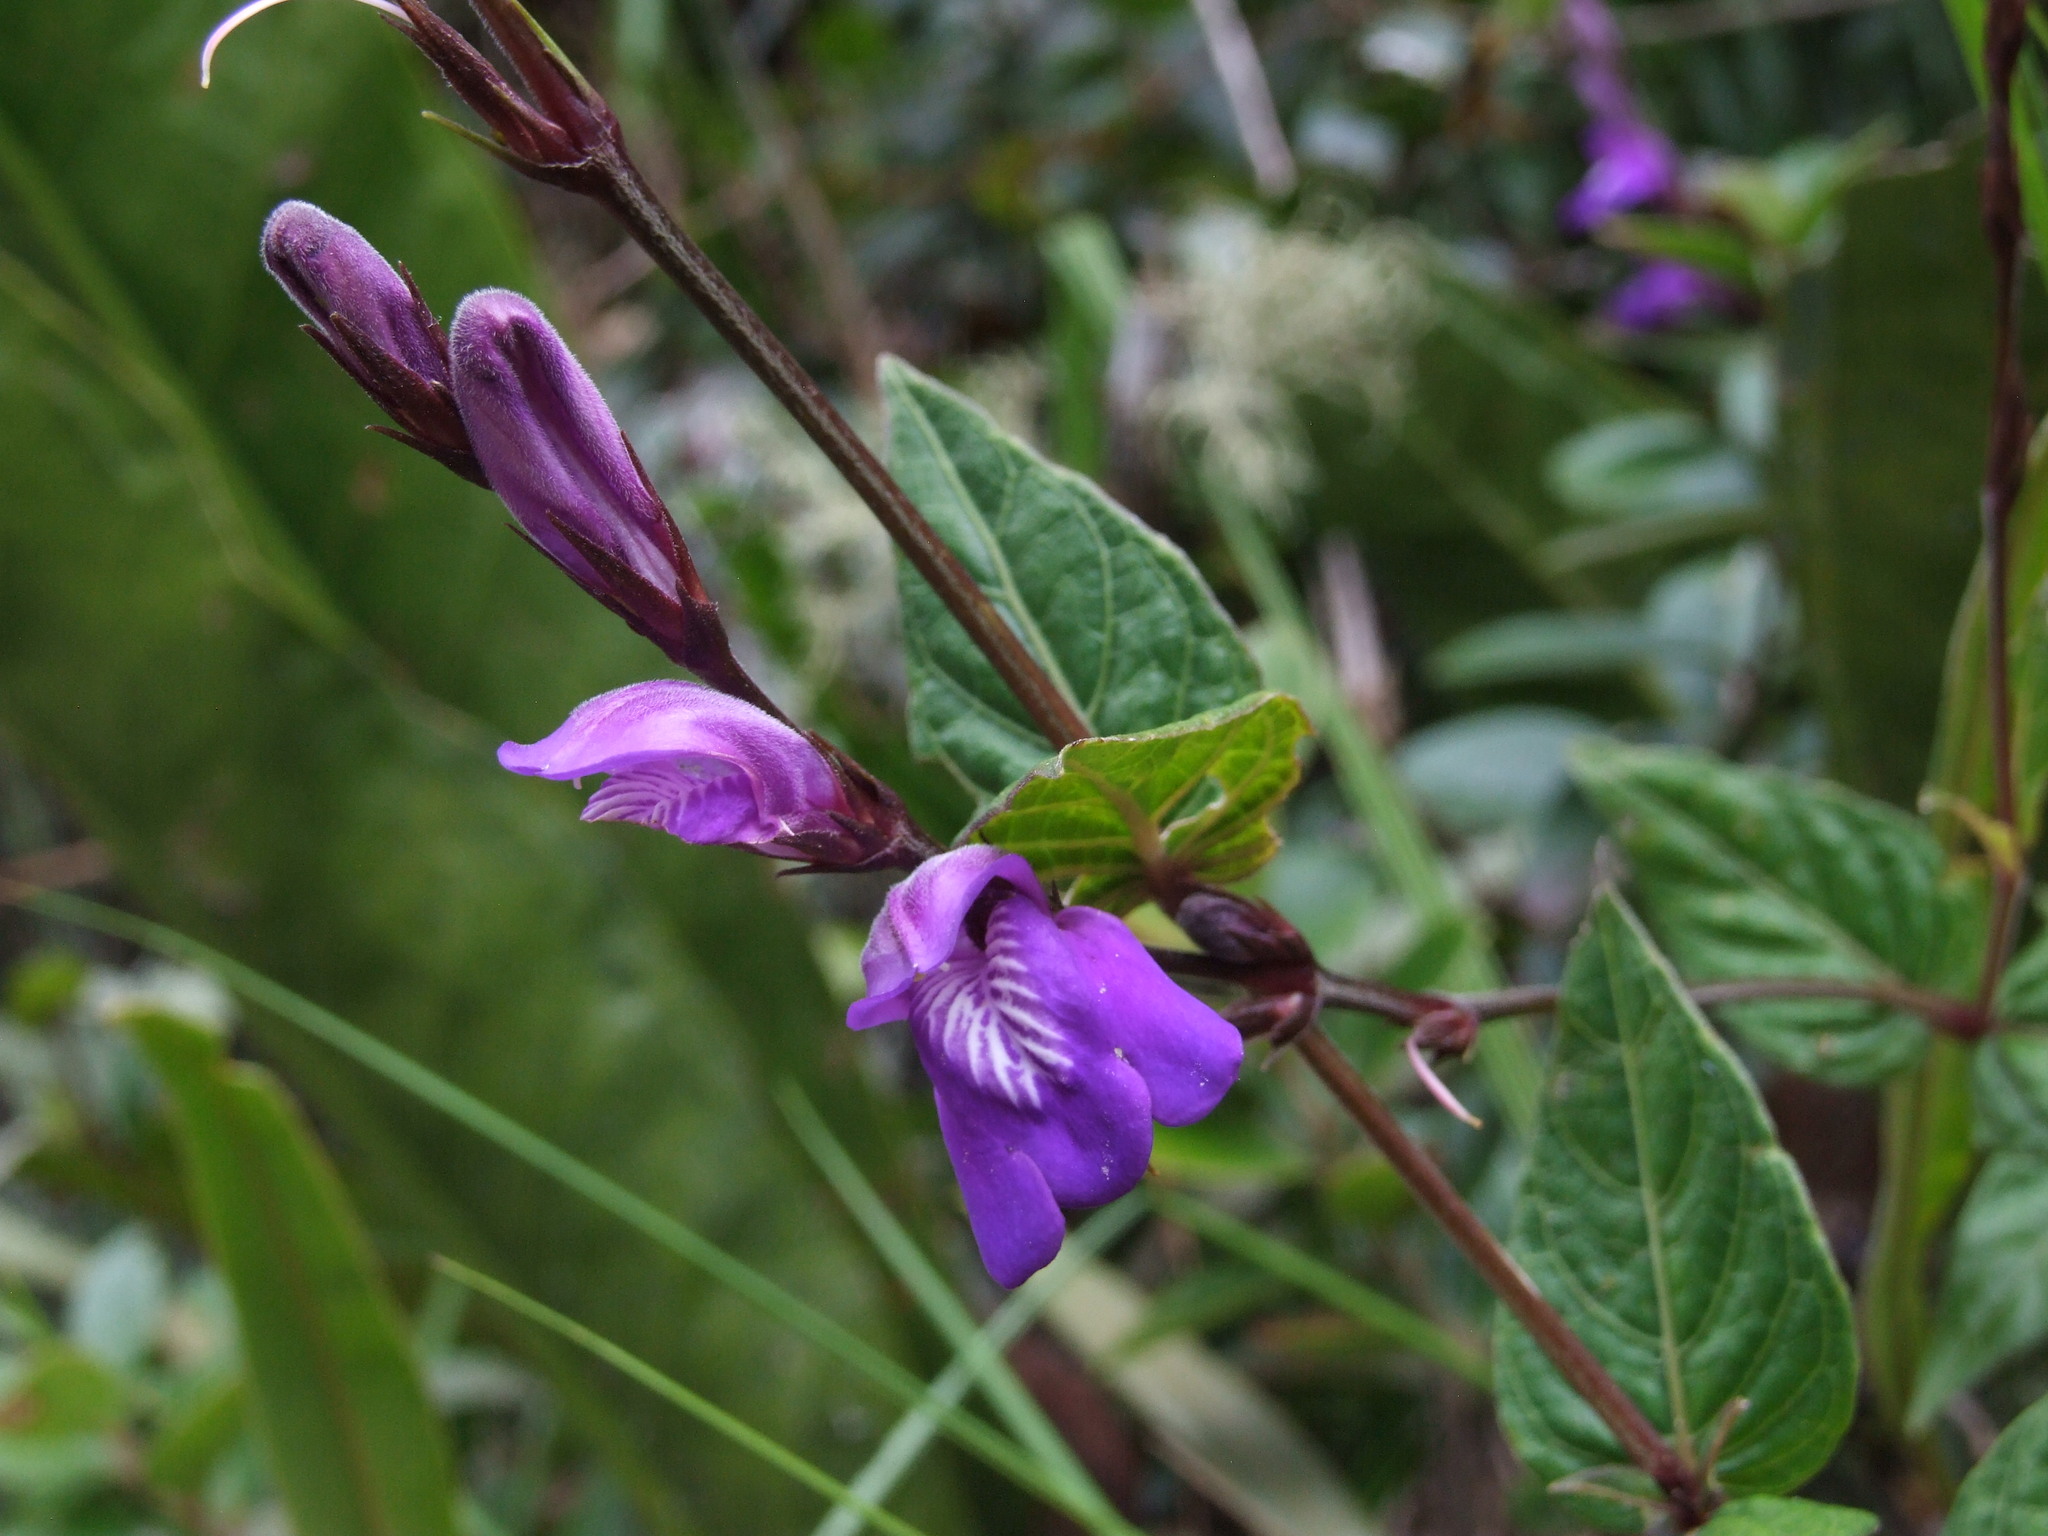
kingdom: Plantae
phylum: Tracheophyta
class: Magnoliopsida
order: Lamiales
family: Acanthaceae
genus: Justicia
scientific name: Justicia alpina
